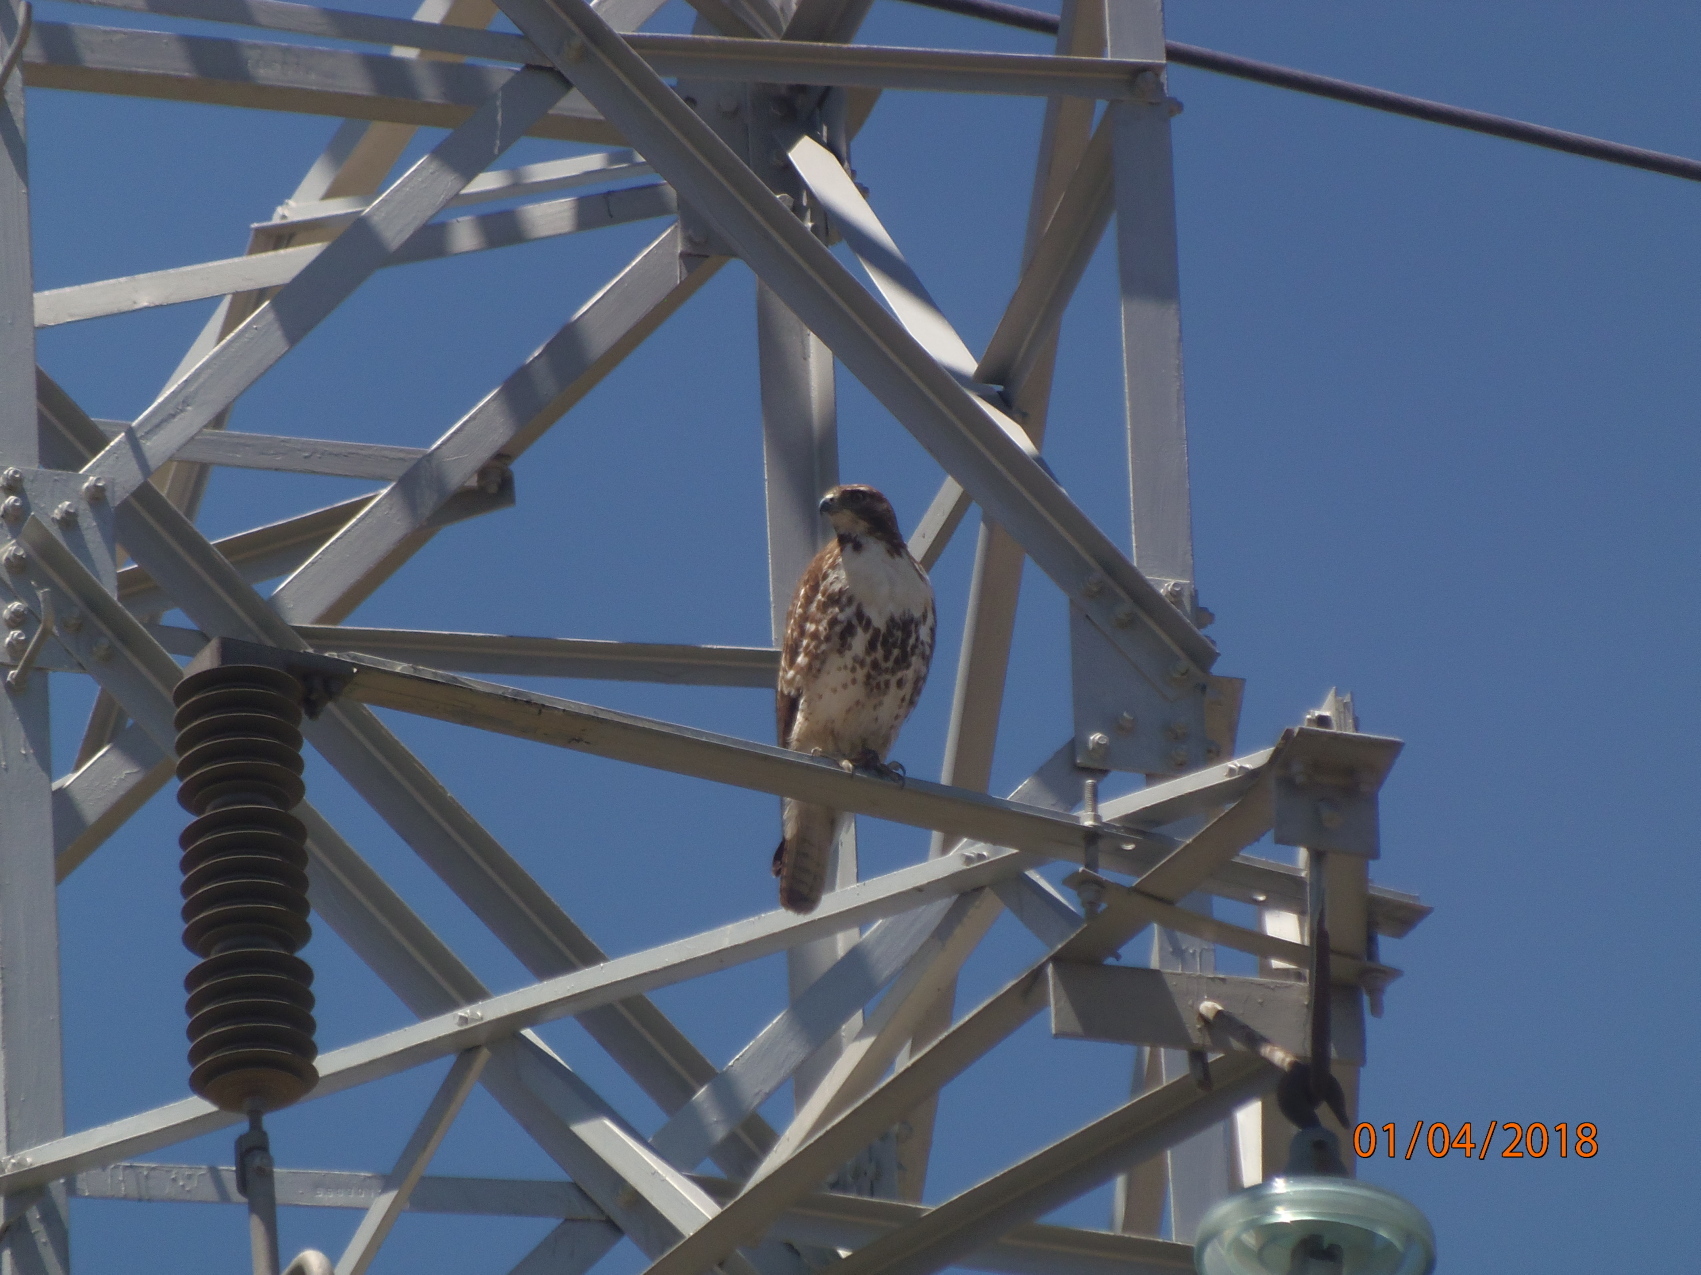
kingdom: Animalia
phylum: Chordata
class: Aves
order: Accipitriformes
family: Accipitridae
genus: Buteo
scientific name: Buteo jamaicensis
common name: Red-tailed hawk
